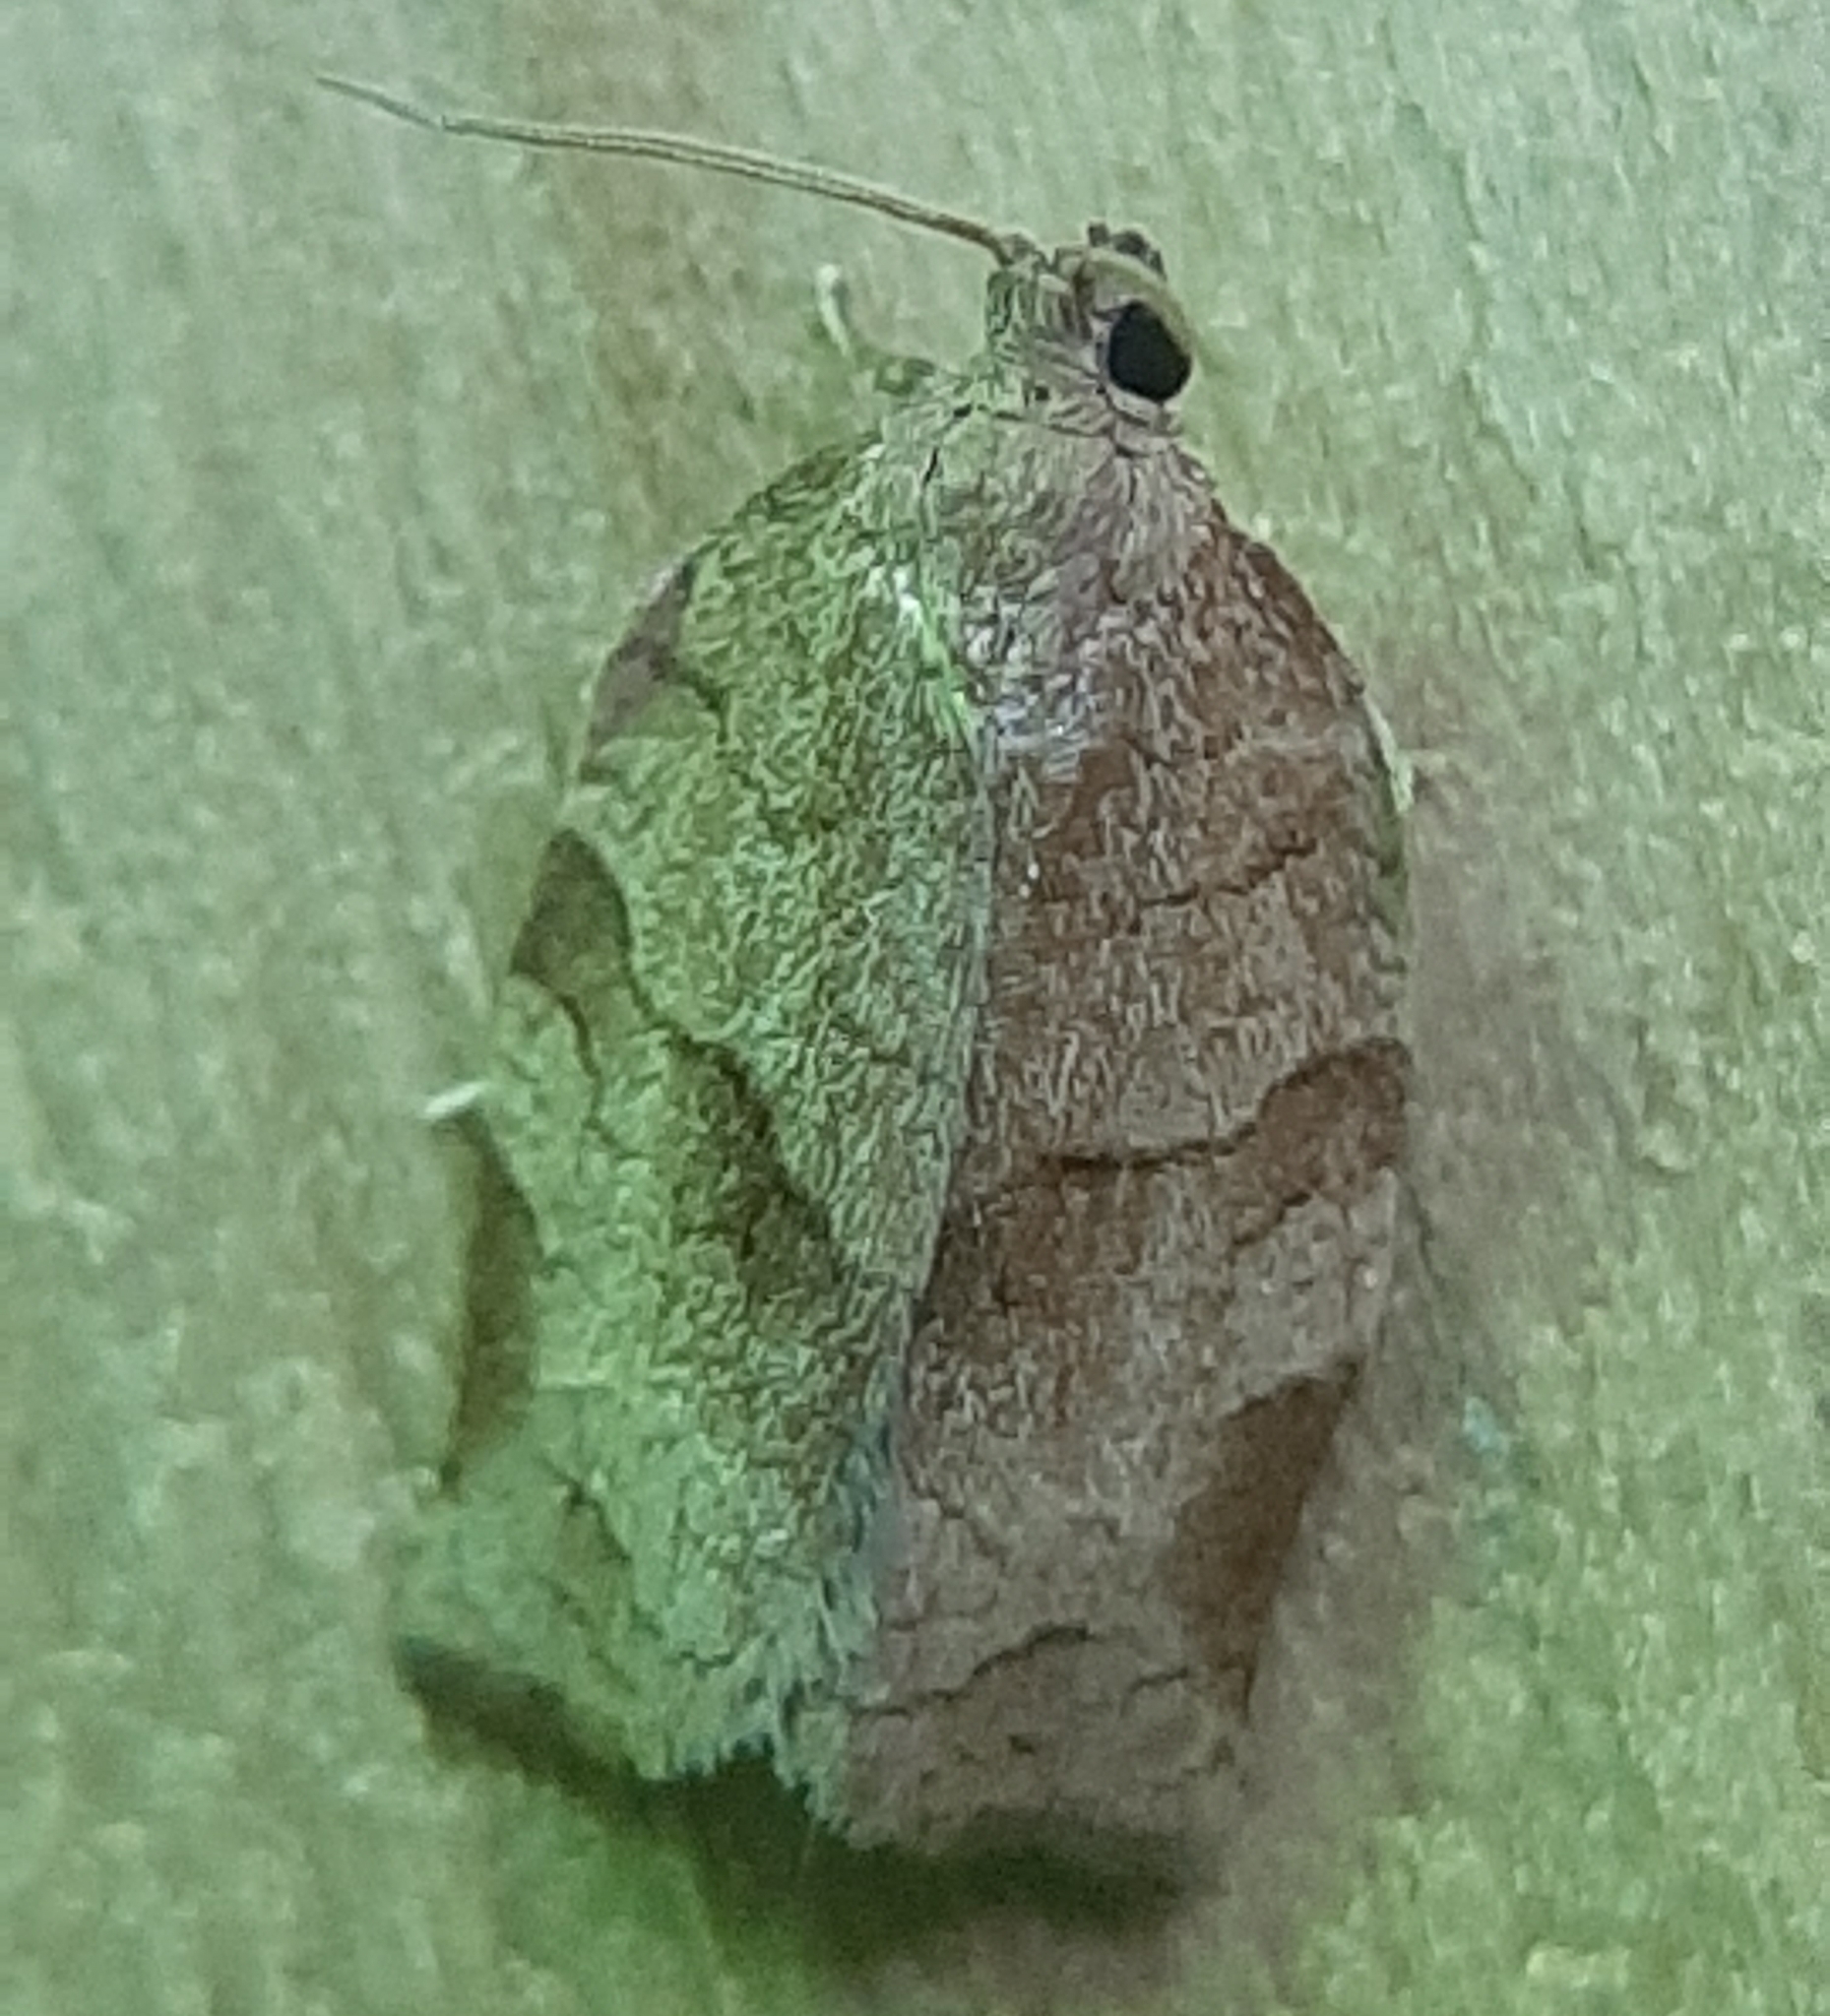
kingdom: Animalia
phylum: Arthropoda
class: Insecta
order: Lepidoptera
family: Tortricidae
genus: Choristoneura
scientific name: Choristoneura rosaceana
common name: Oblique-banded leafroller moth
